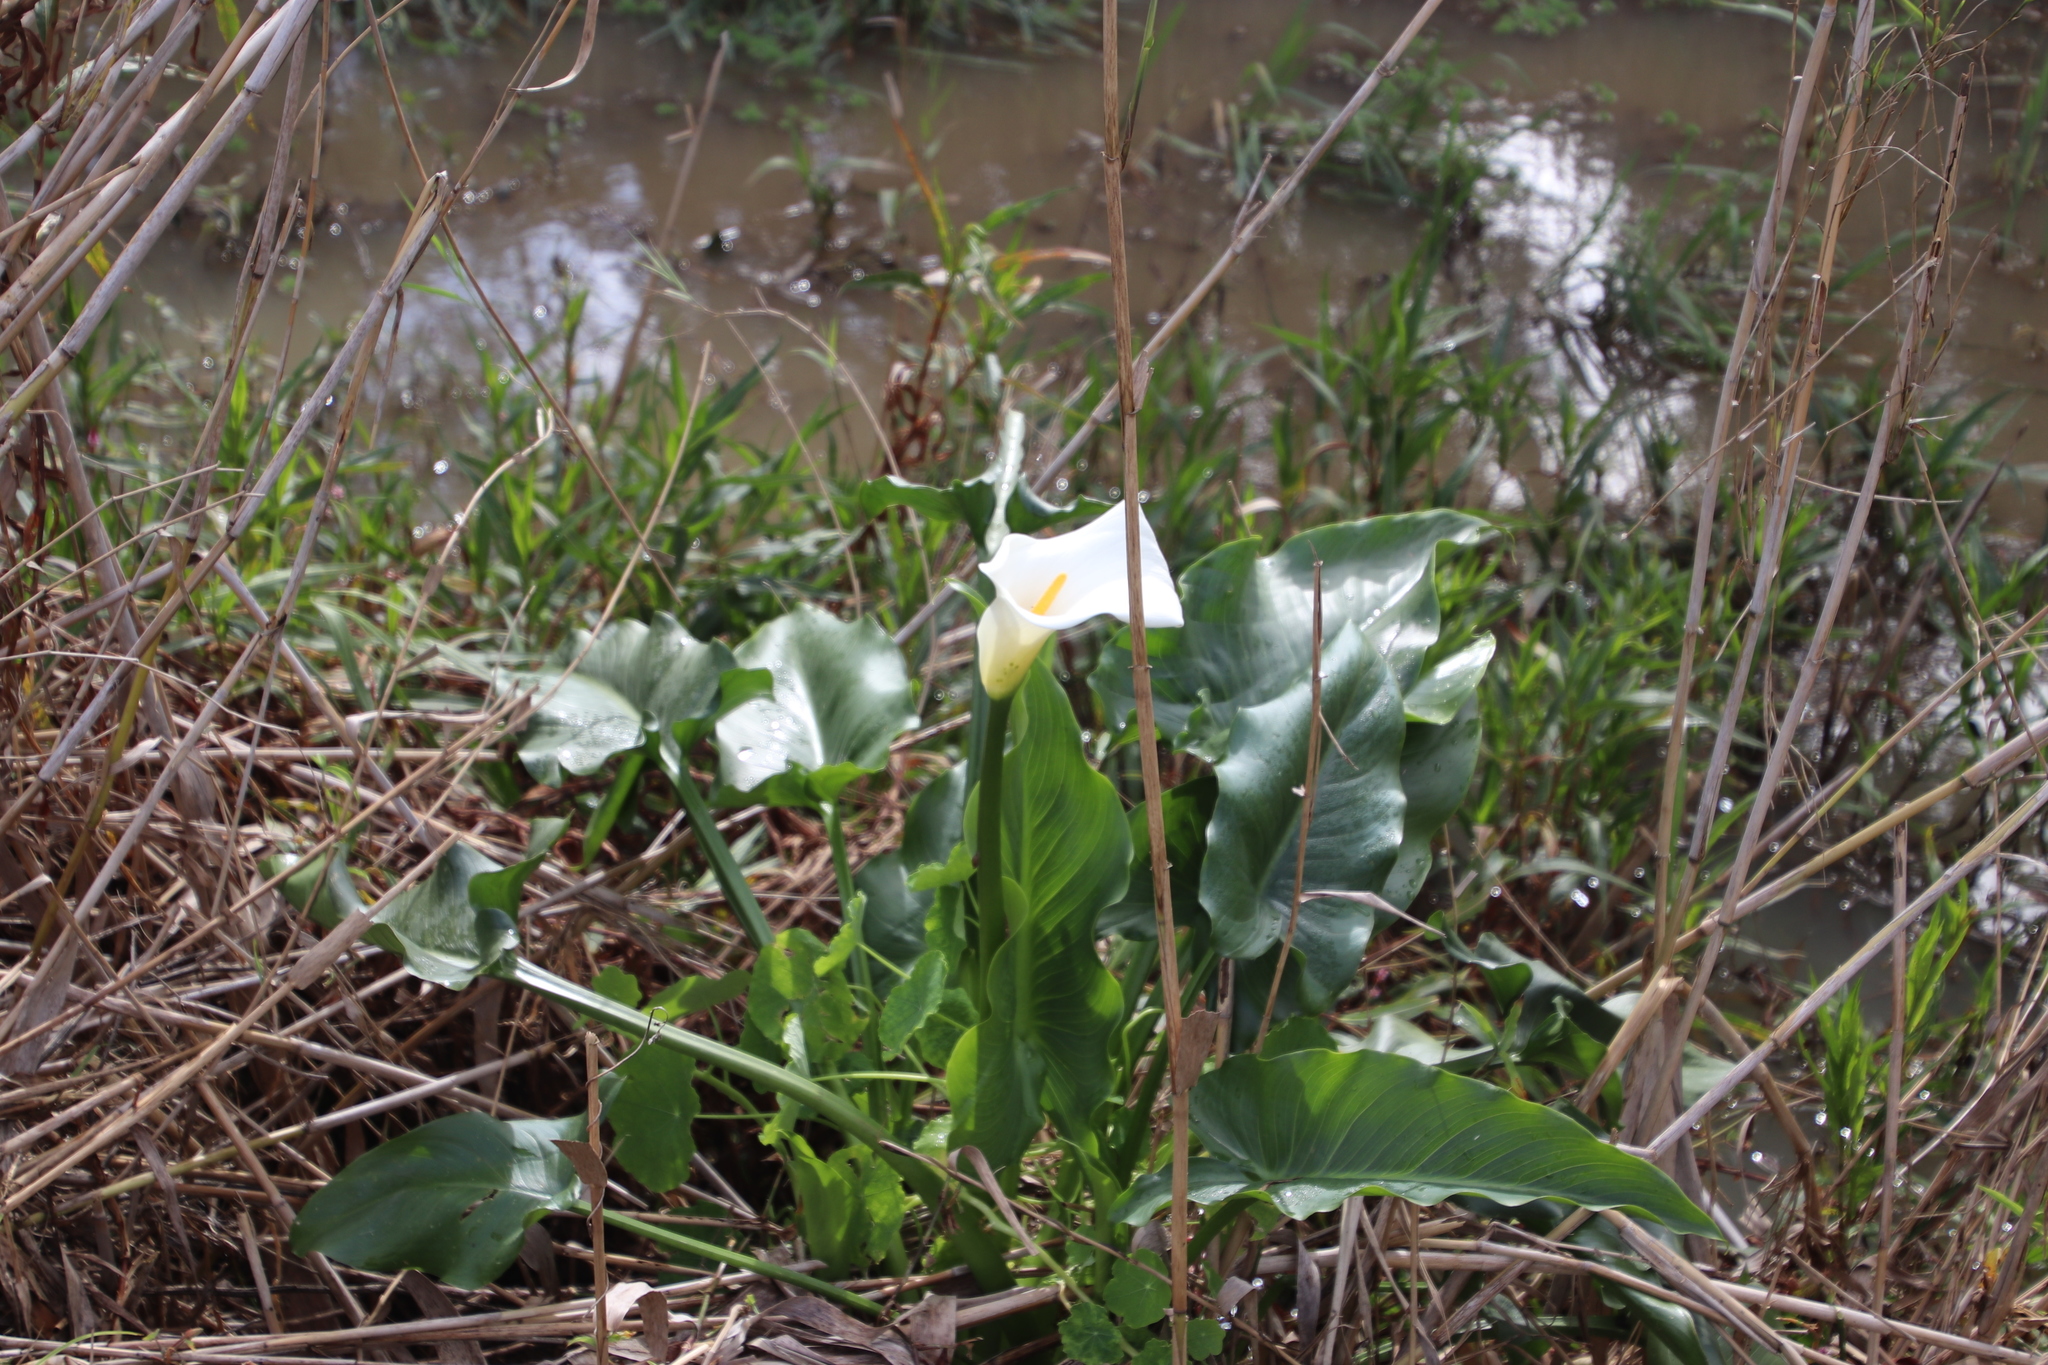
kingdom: Plantae
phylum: Tracheophyta
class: Liliopsida
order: Alismatales
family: Araceae
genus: Zantedeschia
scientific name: Zantedeschia aethiopica
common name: Altar-lily
